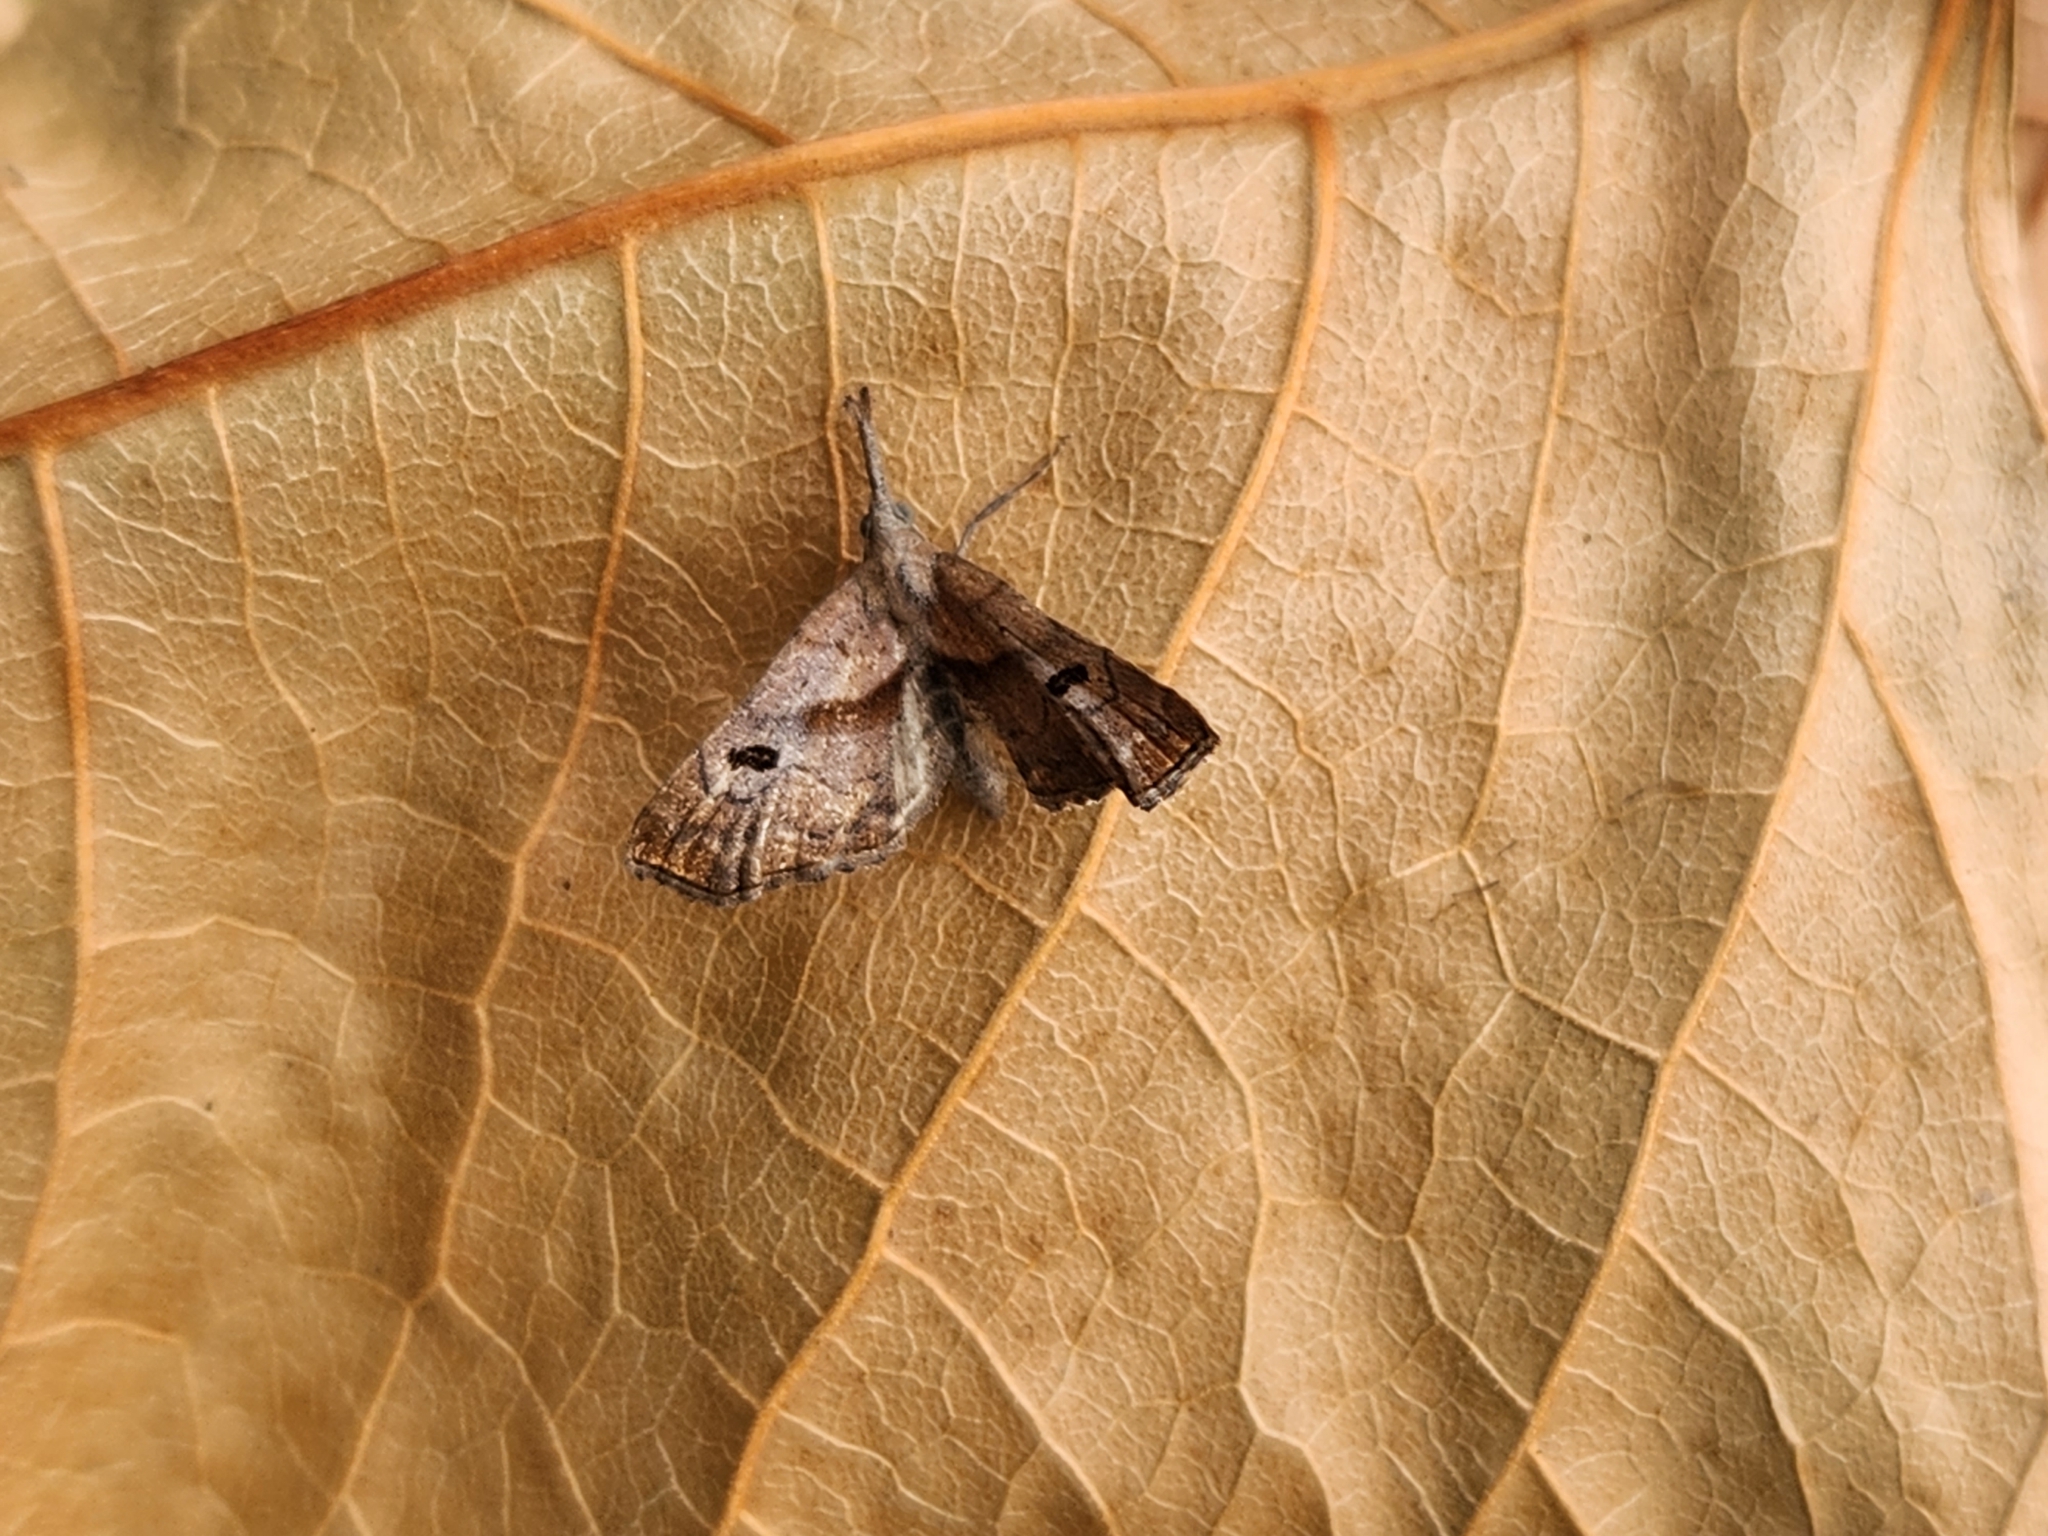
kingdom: Animalia
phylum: Arthropoda
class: Insecta
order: Lepidoptera
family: Erebidae
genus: Palthis
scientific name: Palthis angulalis
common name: Dark-spotted palthis moth
